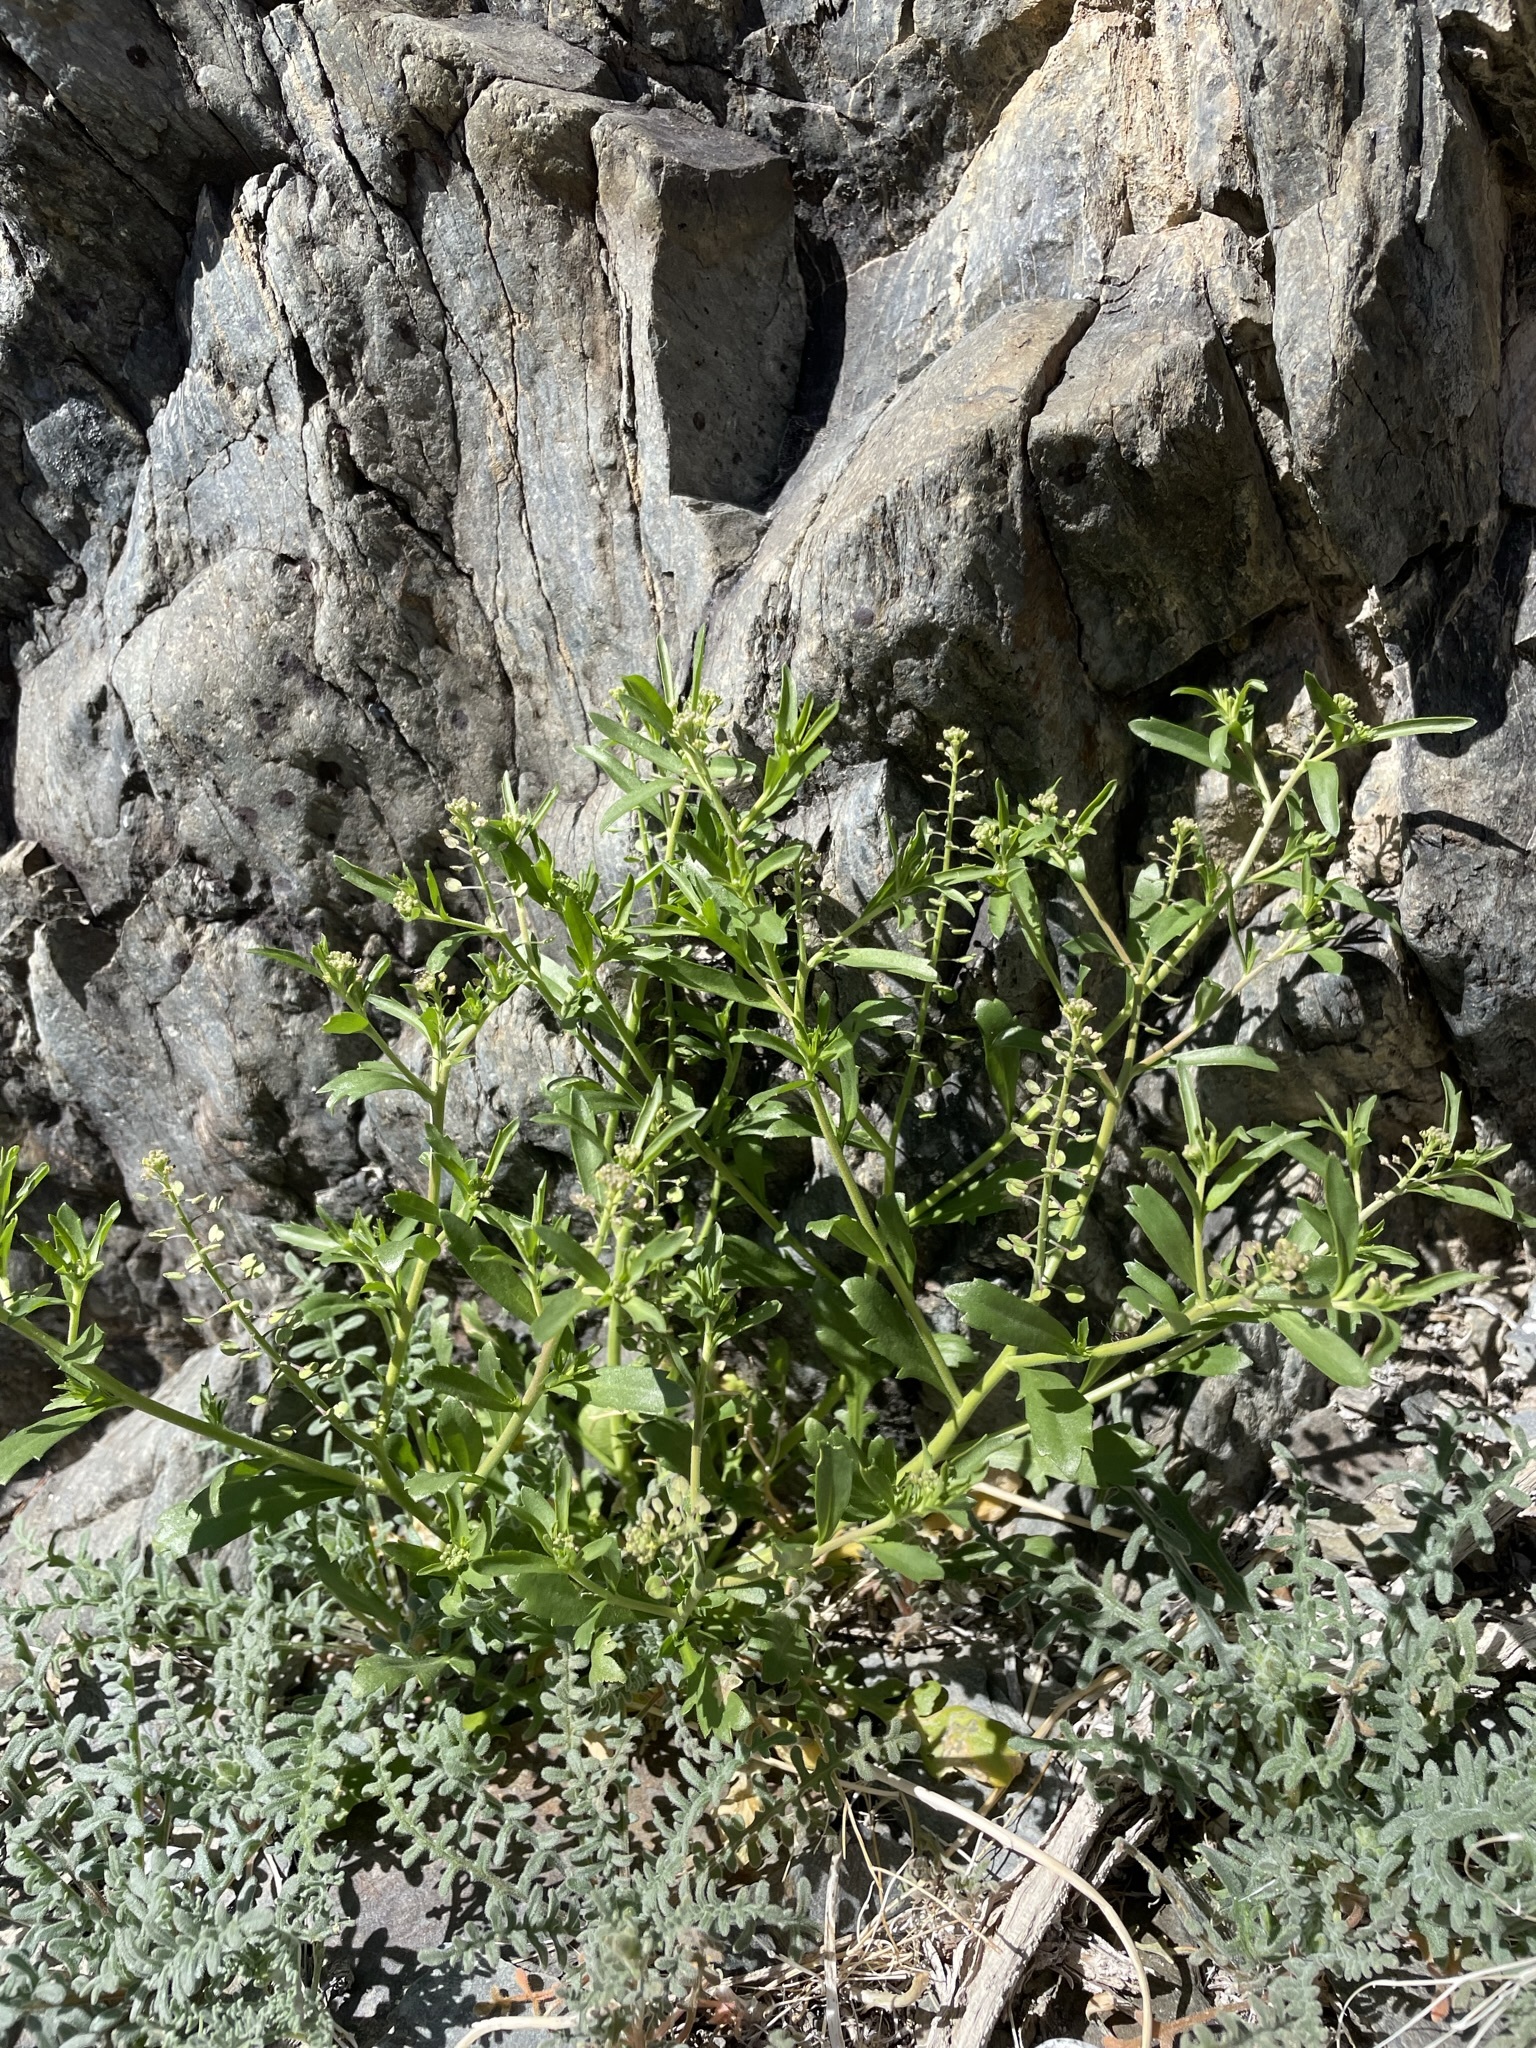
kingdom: Plantae
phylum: Tracheophyta
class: Magnoliopsida
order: Brassicales
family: Brassicaceae
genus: Lepidium
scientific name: Lepidium lasiocarpum
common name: Hairy-pod pepperwort
